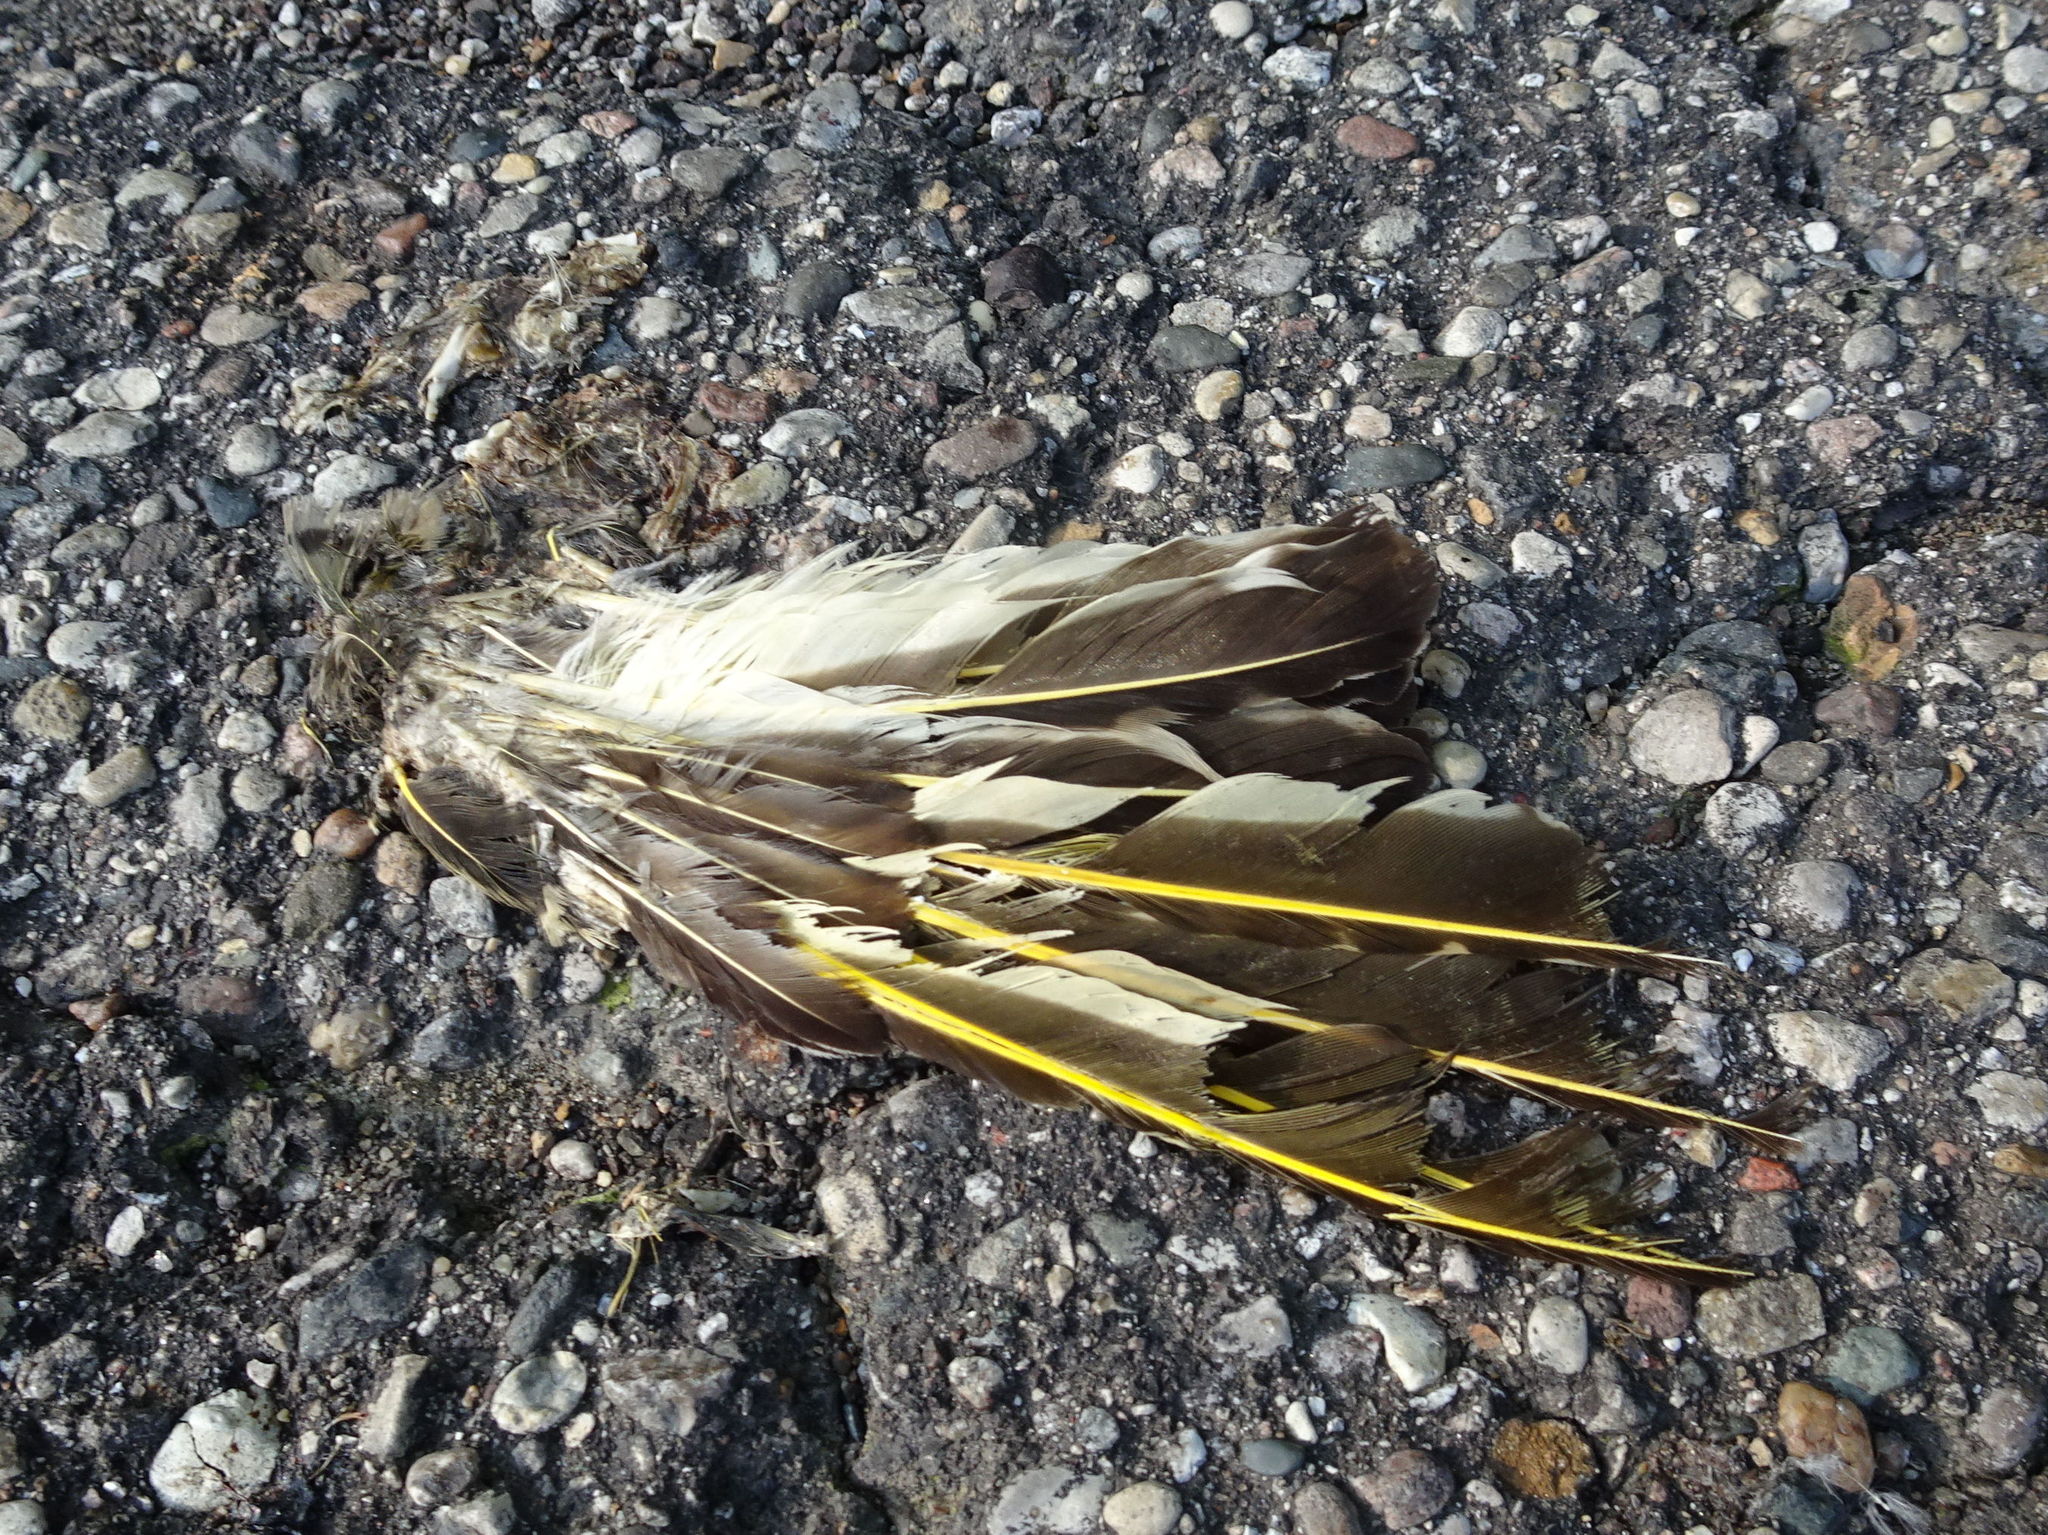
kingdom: Animalia
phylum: Chordata
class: Aves
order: Piciformes
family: Picidae
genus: Colaptes
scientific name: Colaptes auratus
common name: Northern flicker
